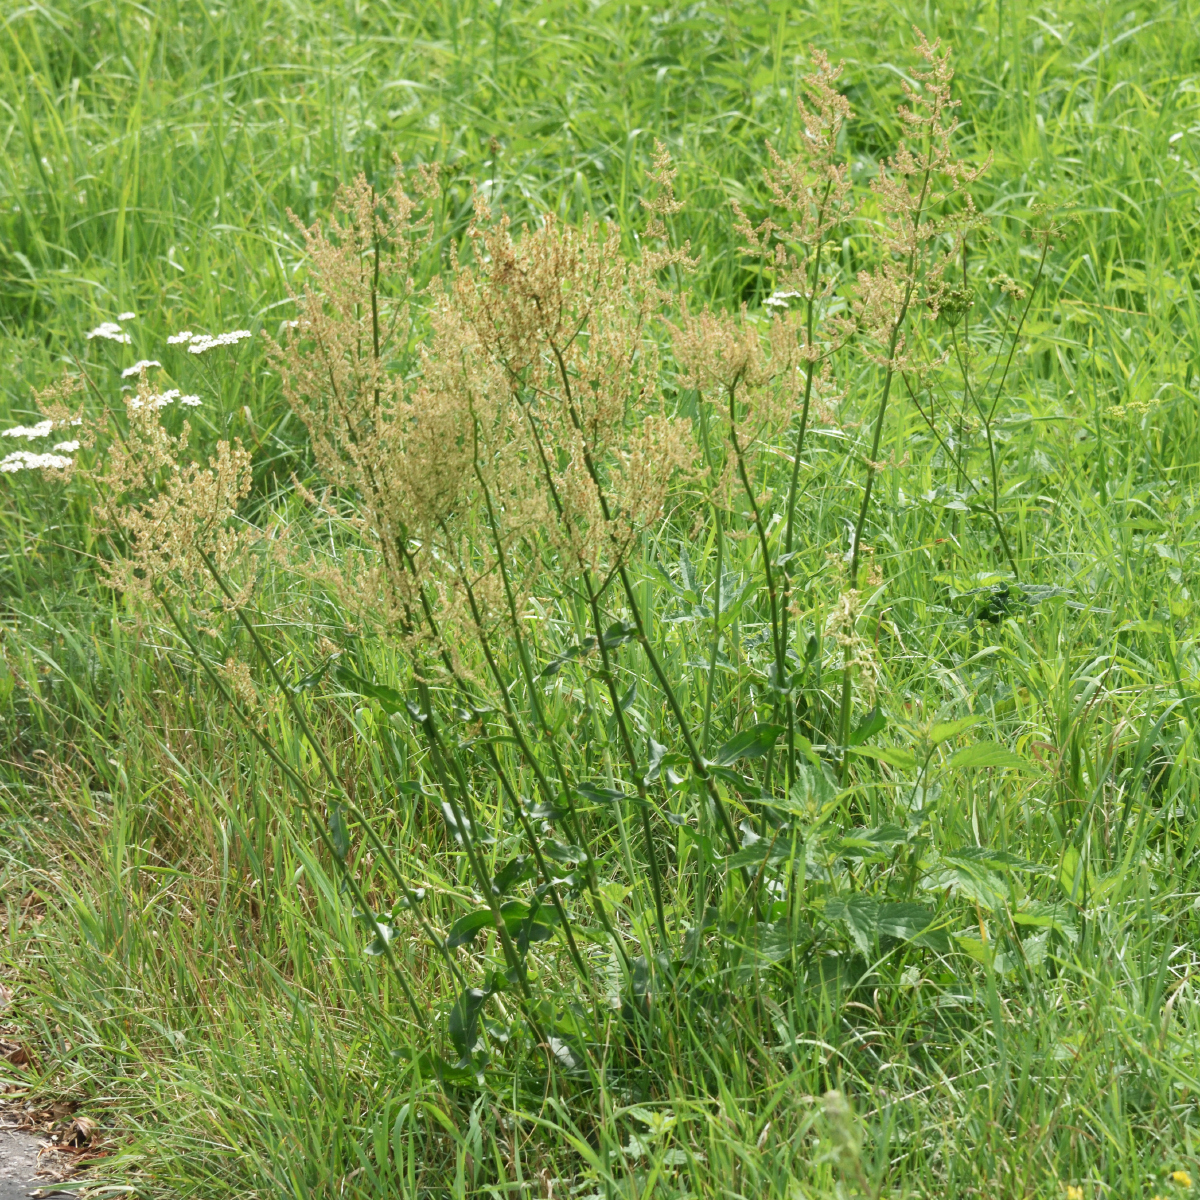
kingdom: Plantae
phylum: Tracheophyta
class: Magnoliopsida
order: Caryophyllales
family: Polygonaceae
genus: Rumex
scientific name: Rumex thyrsiflorus
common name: Garden sorrel
